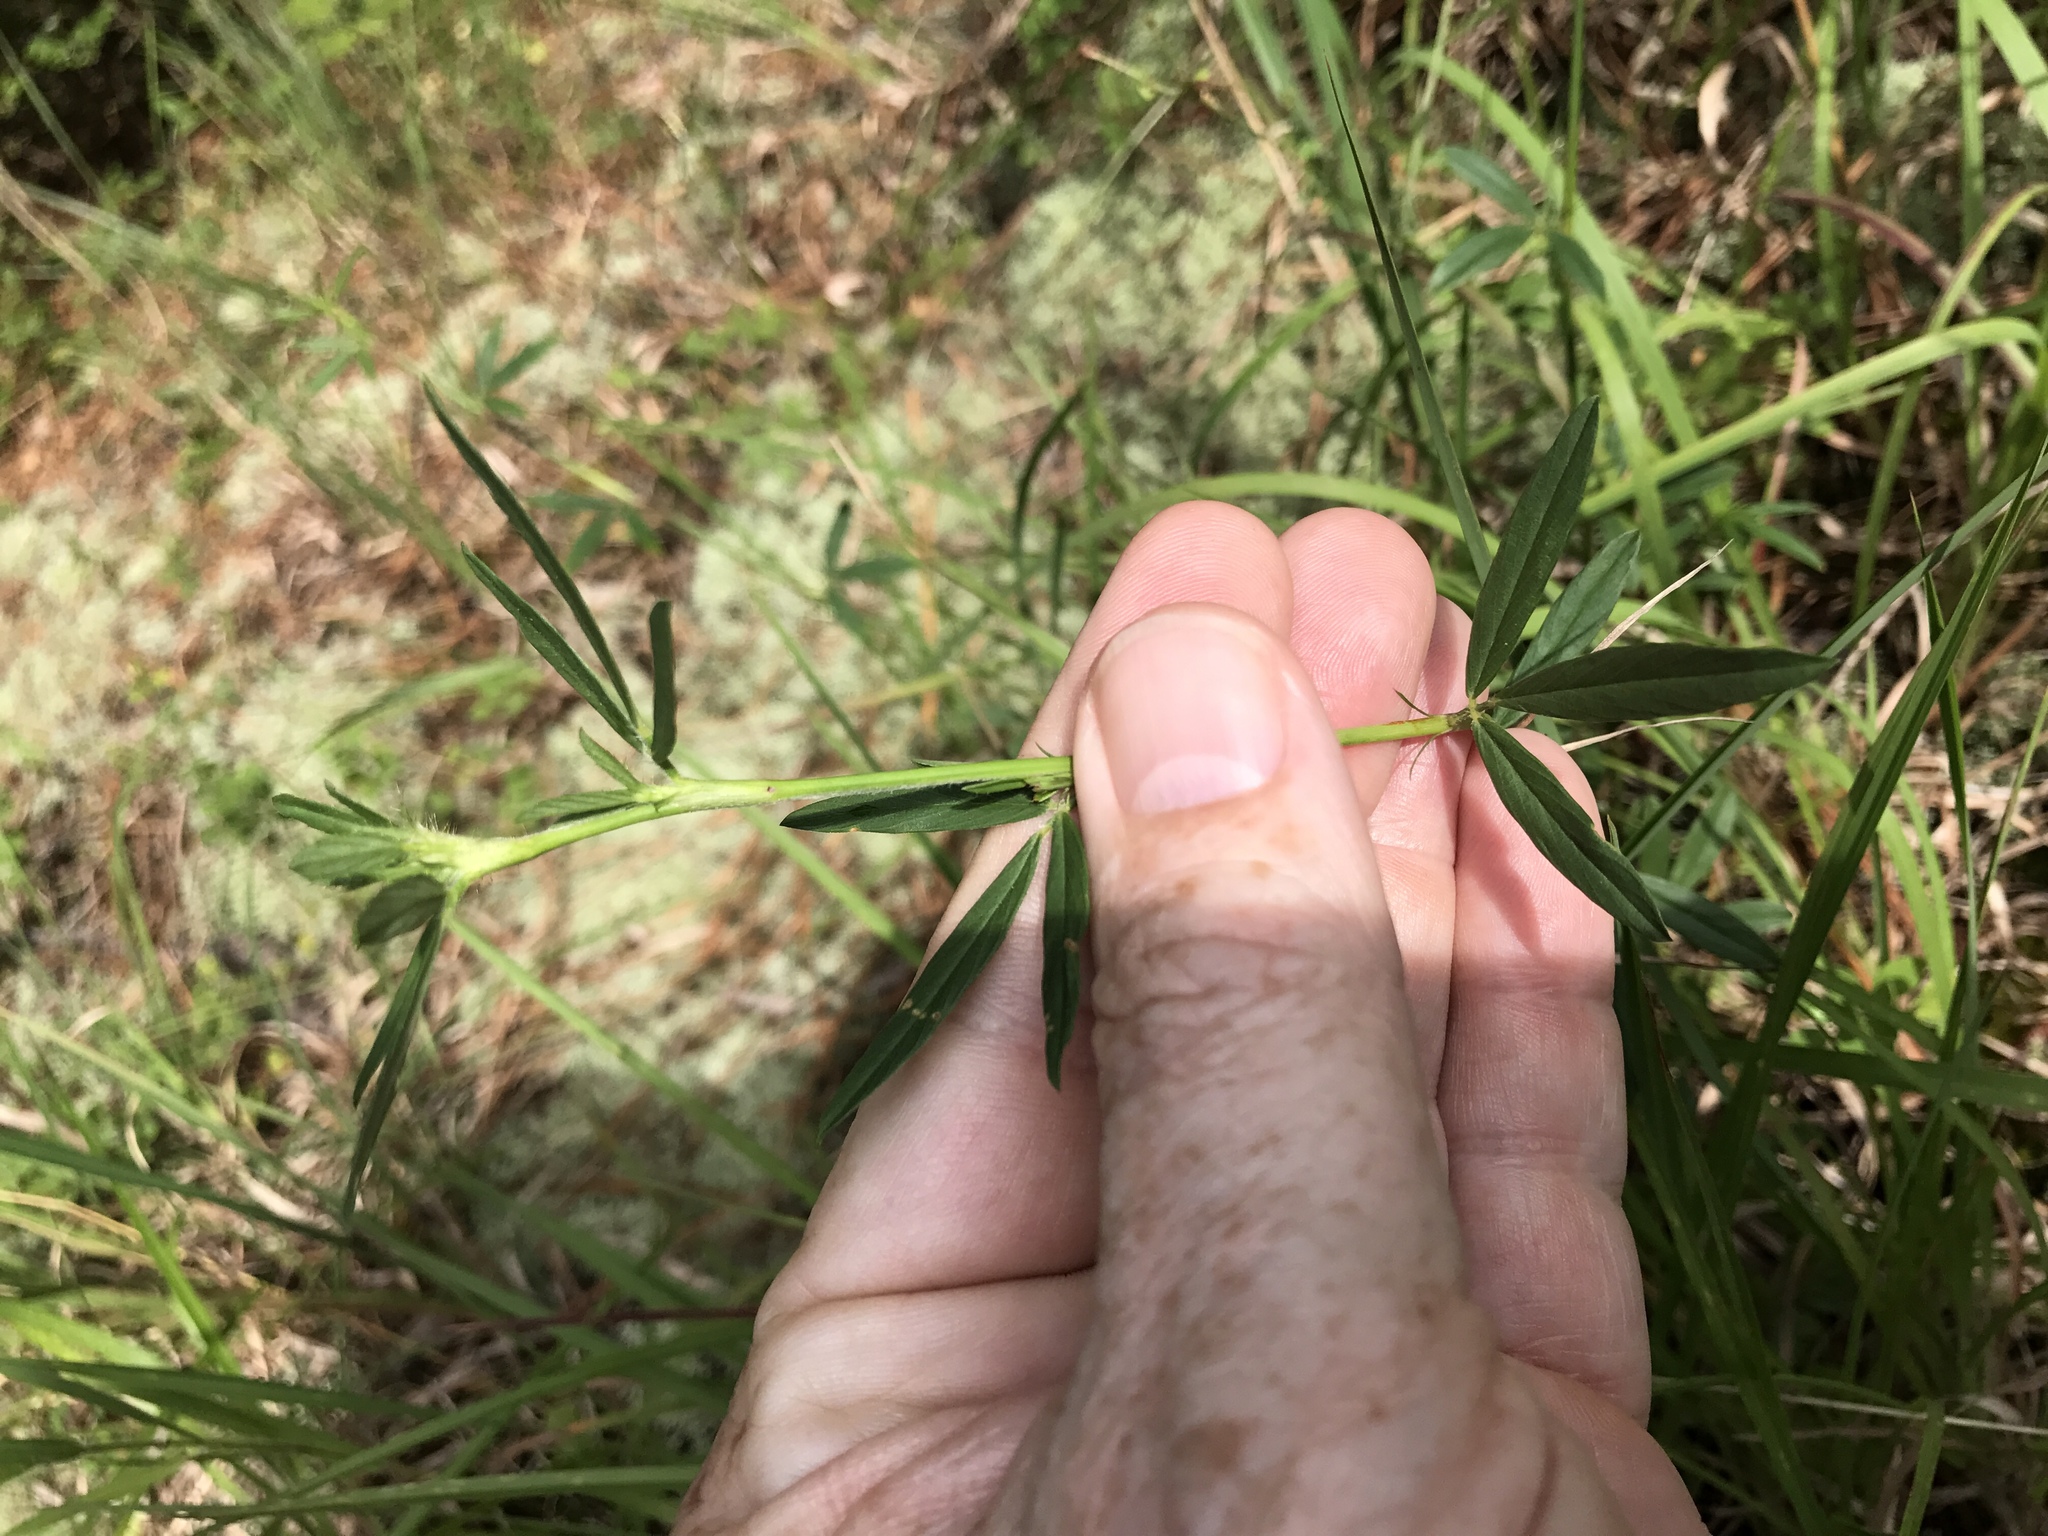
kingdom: Plantae
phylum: Tracheophyta
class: Magnoliopsida
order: Fabales
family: Fabaceae
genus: Stylosanthes
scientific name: Stylosanthes biflora
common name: Two-flower pencil-flower
